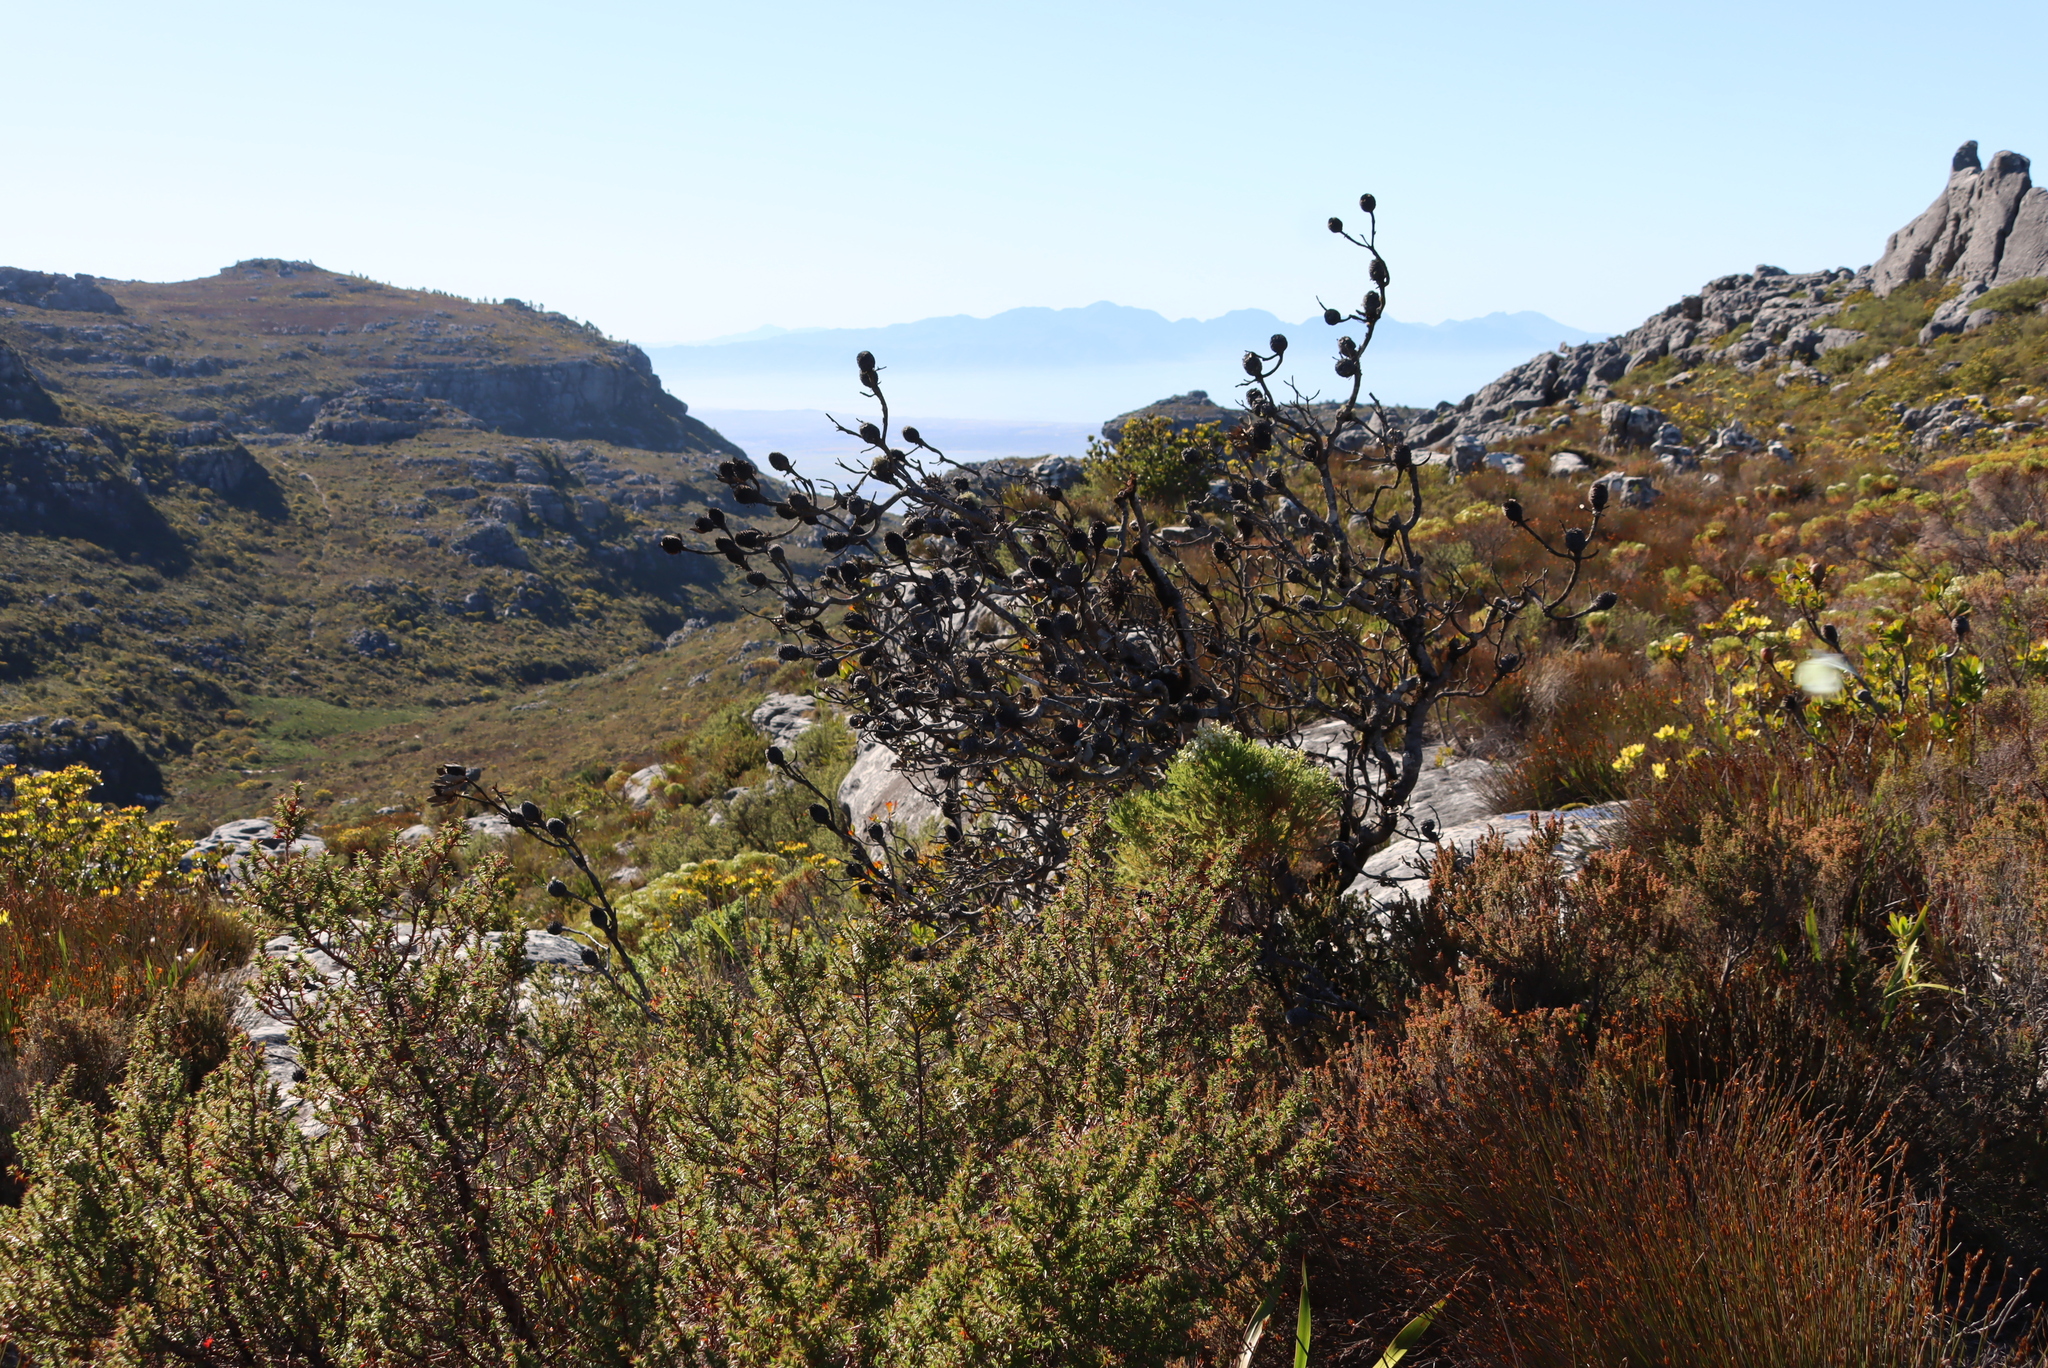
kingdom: Plantae
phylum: Tracheophyta
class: Magnoliopsida
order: Proteales
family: Proteaceae
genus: Leucadendron
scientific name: Leucadendron strobilinum
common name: Mountain rose
